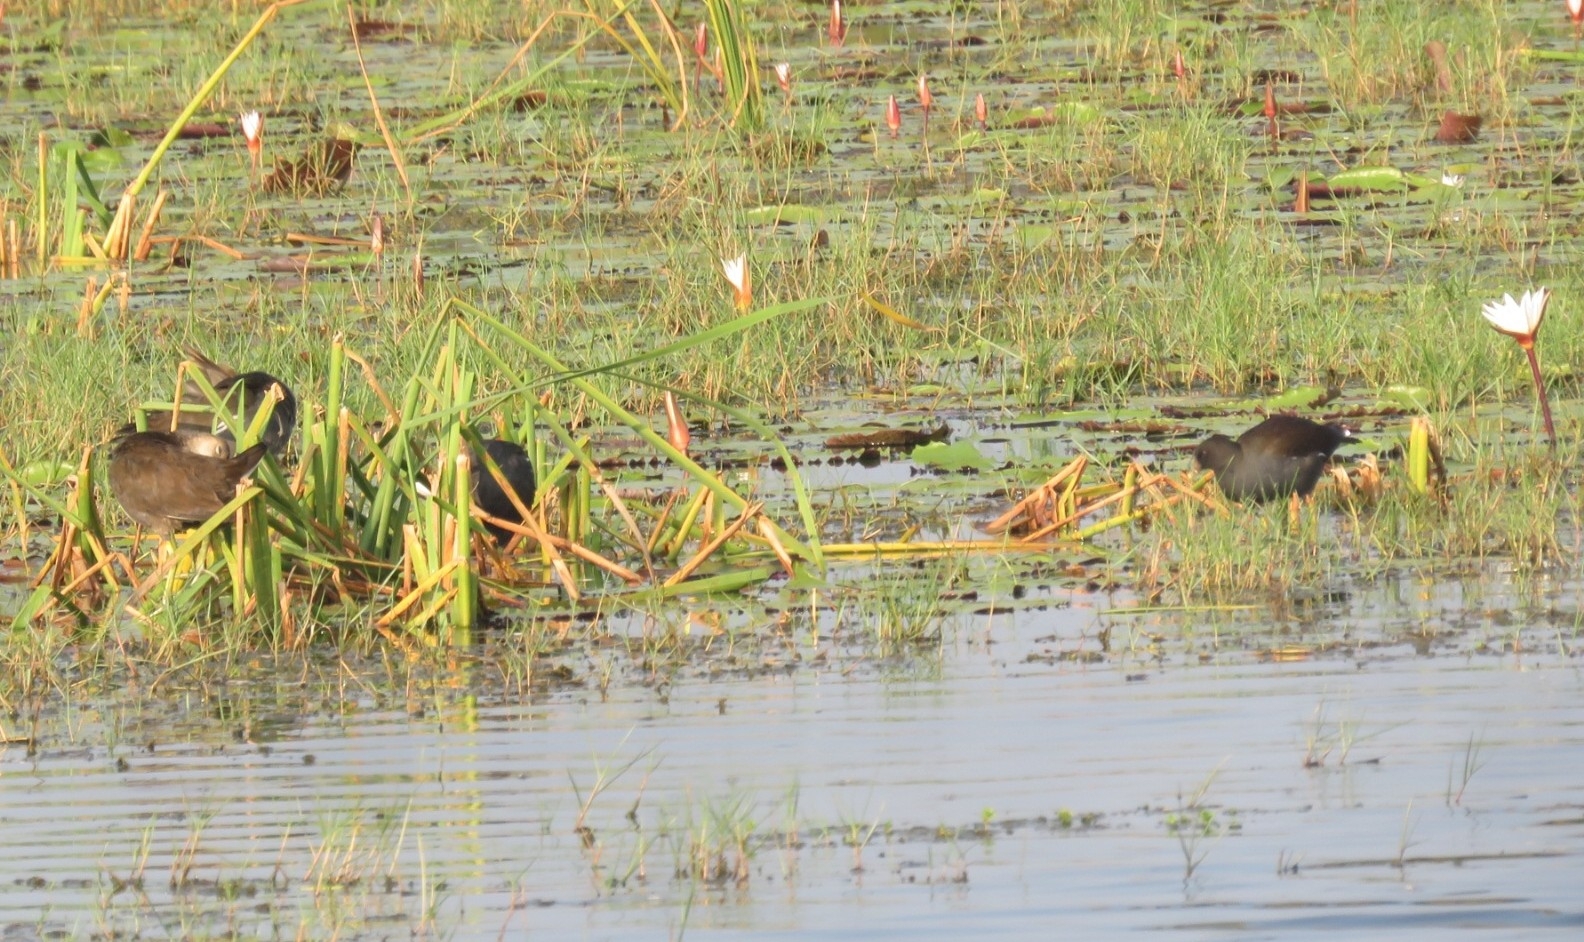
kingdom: Animalia
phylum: Chordata
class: Aves
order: Gruiformes
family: Rallidae
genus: Gallinula
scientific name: Gallinula chloropus
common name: Common moorhen
